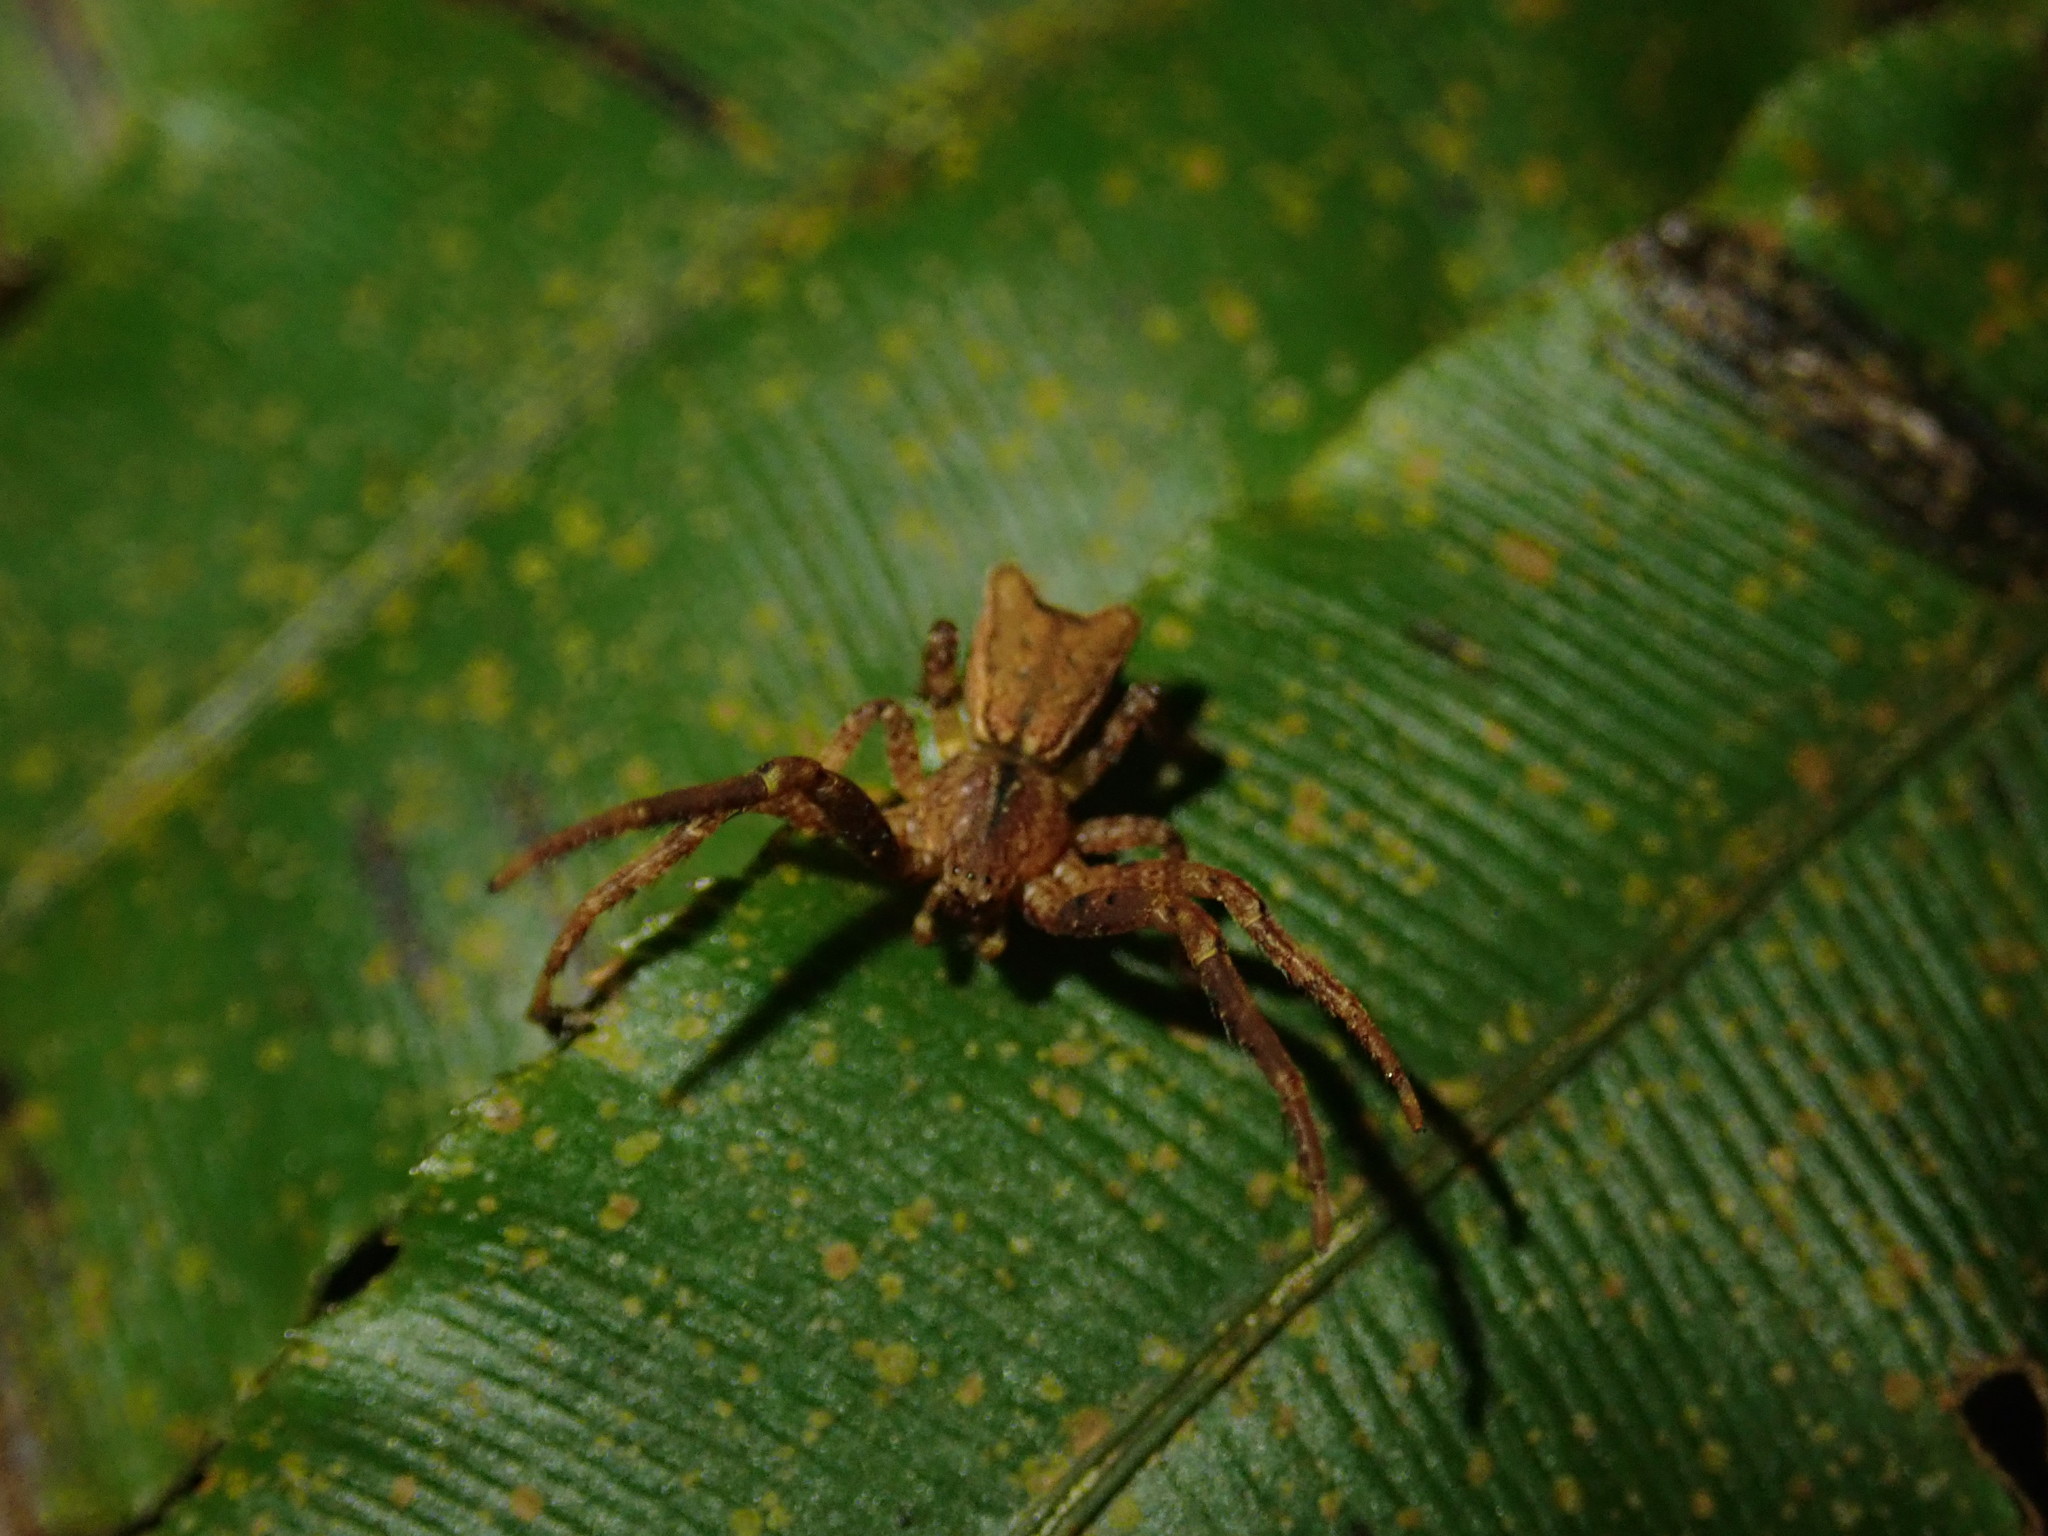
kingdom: Animalia
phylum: Arthropoda
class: Arachnida
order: Araneae
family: Thomisidae
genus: Sidymella
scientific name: Sidymella angularis
